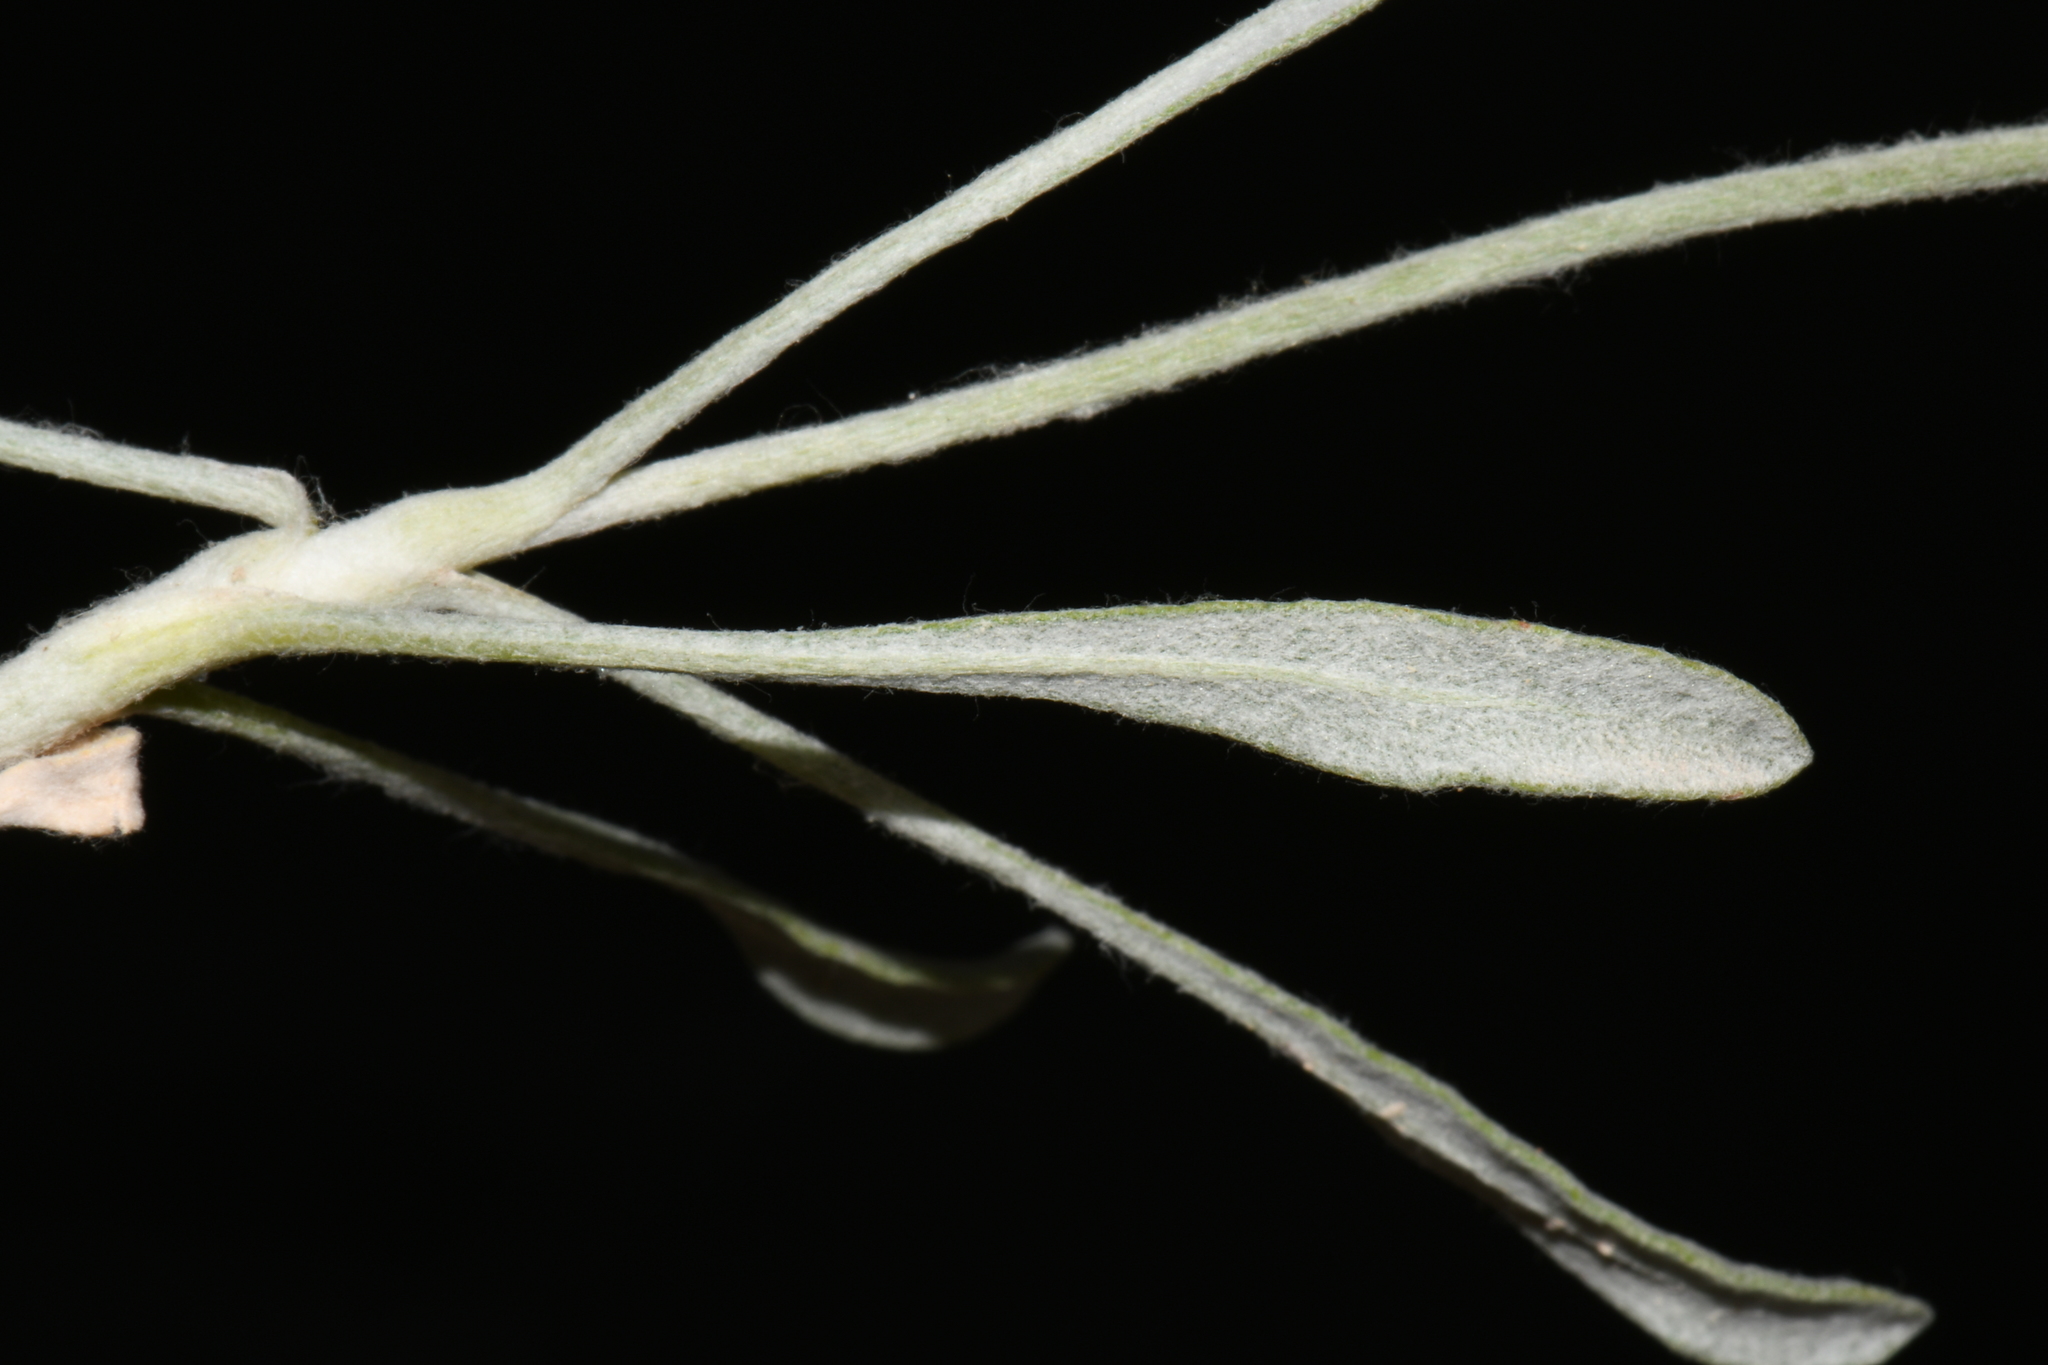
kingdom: Plantae
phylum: Tracheophyta
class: Magnoliopsida
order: Caryophyllales
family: Polygonaceae
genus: Eriogonum
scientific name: Eriogonum pauciflorum
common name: Few-flower wild buckwheat
